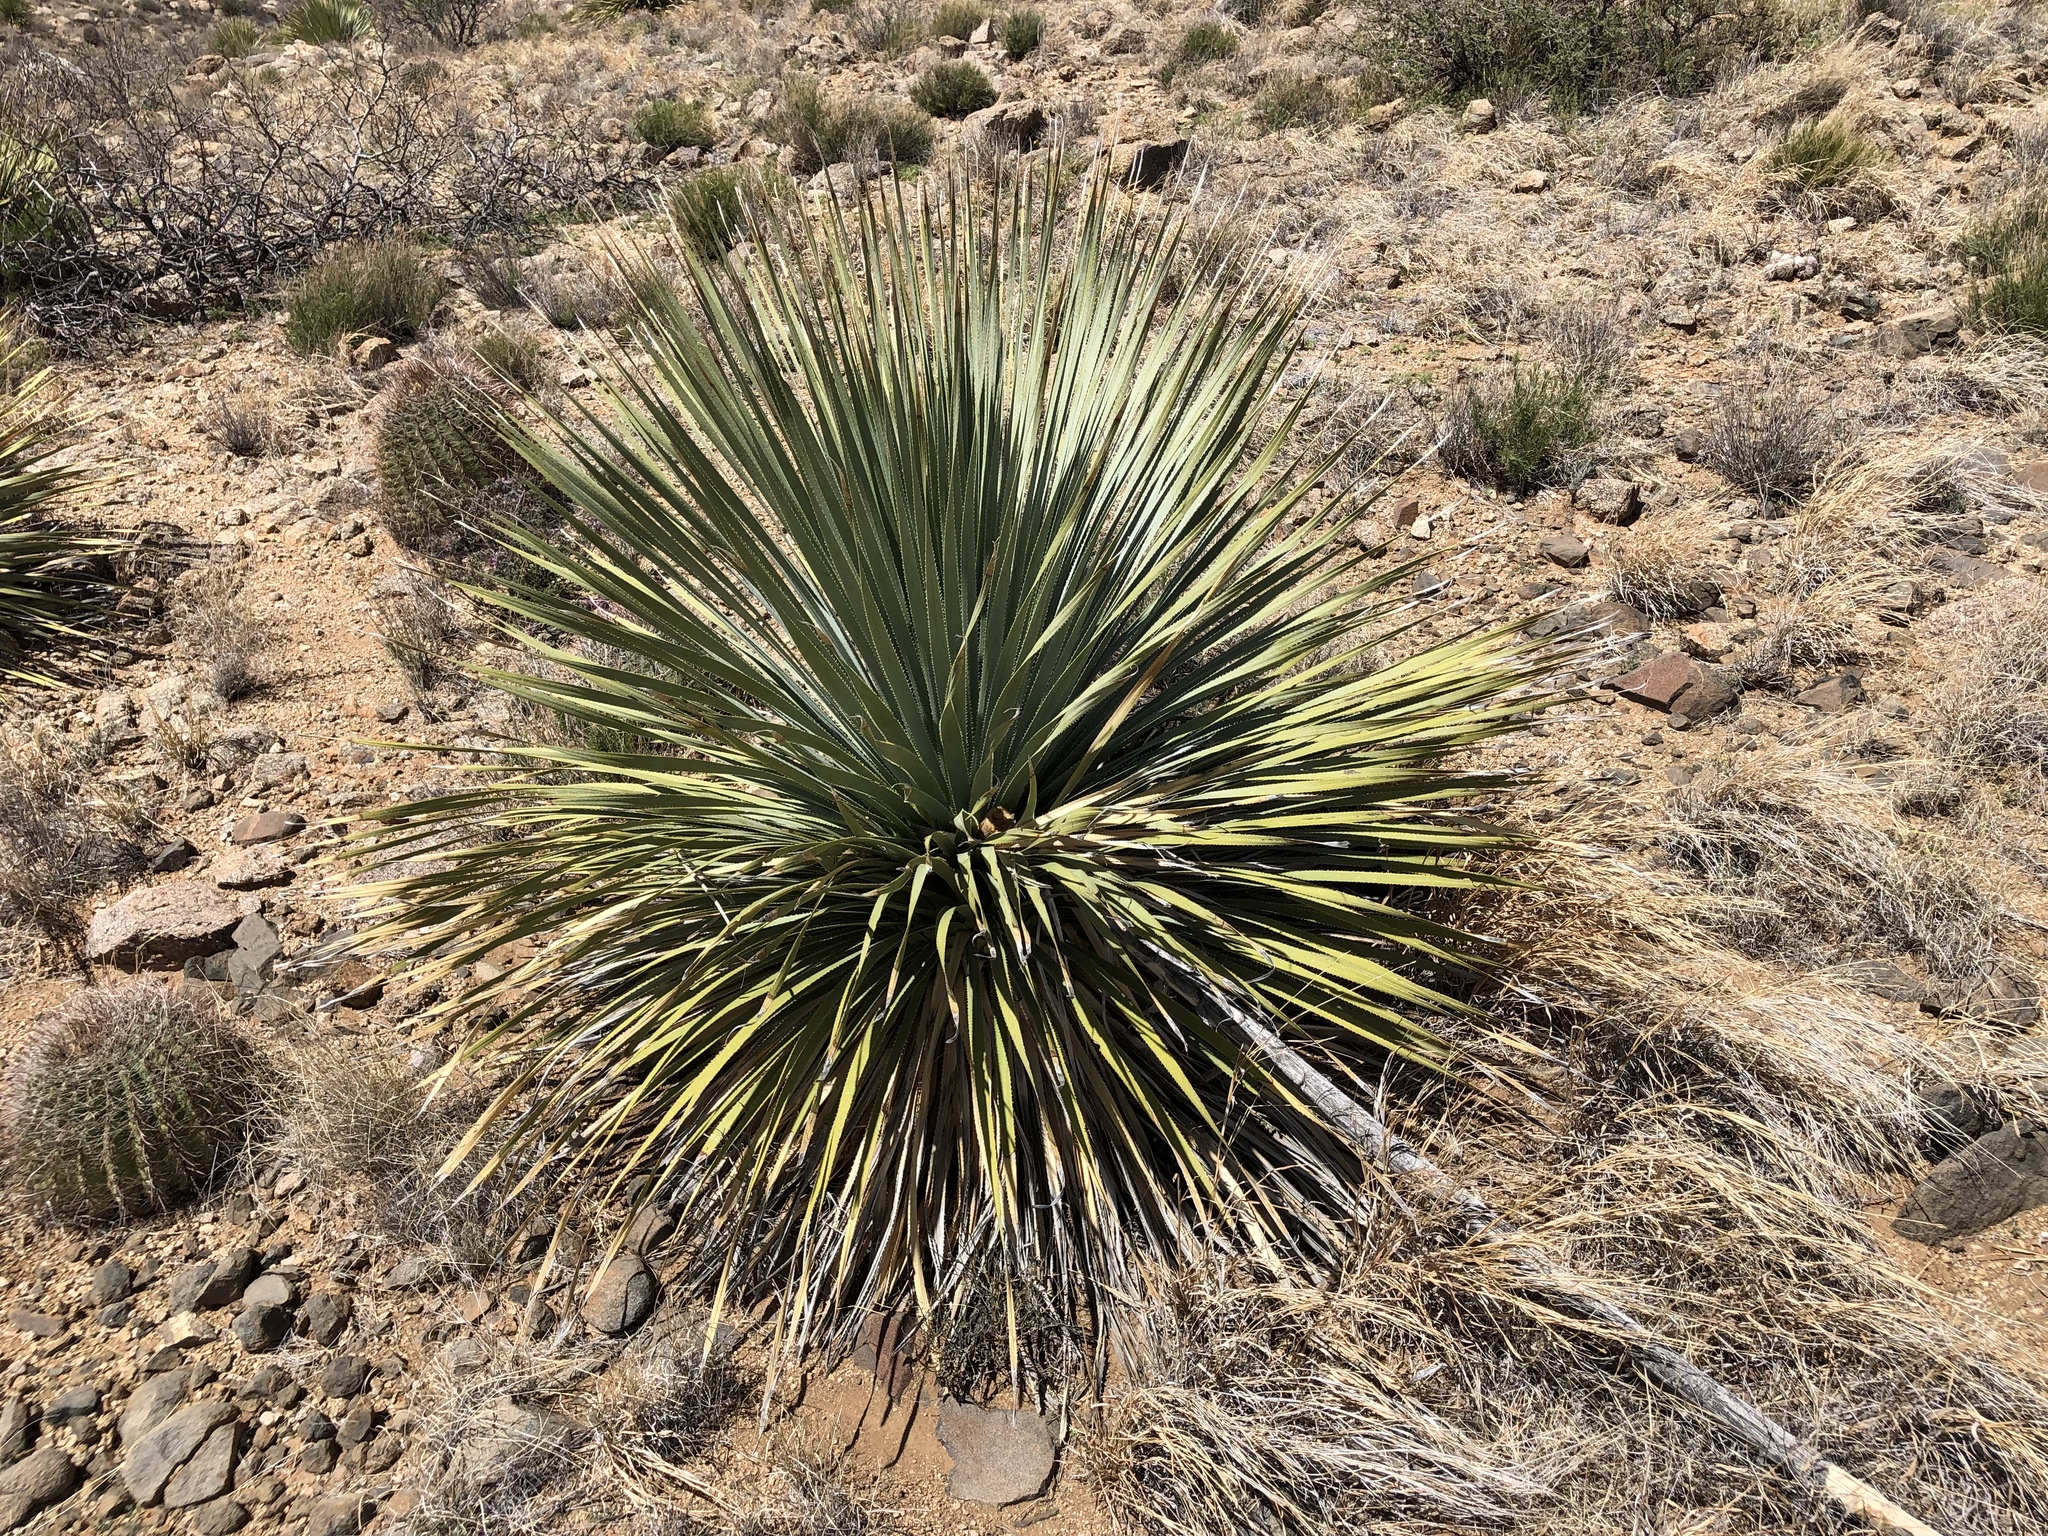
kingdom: Plantae
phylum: Tracheophyta
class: Liliopsida
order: Asparagales
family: Asparagaceae
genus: Dasylirion
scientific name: Dasylirion wheeleri
